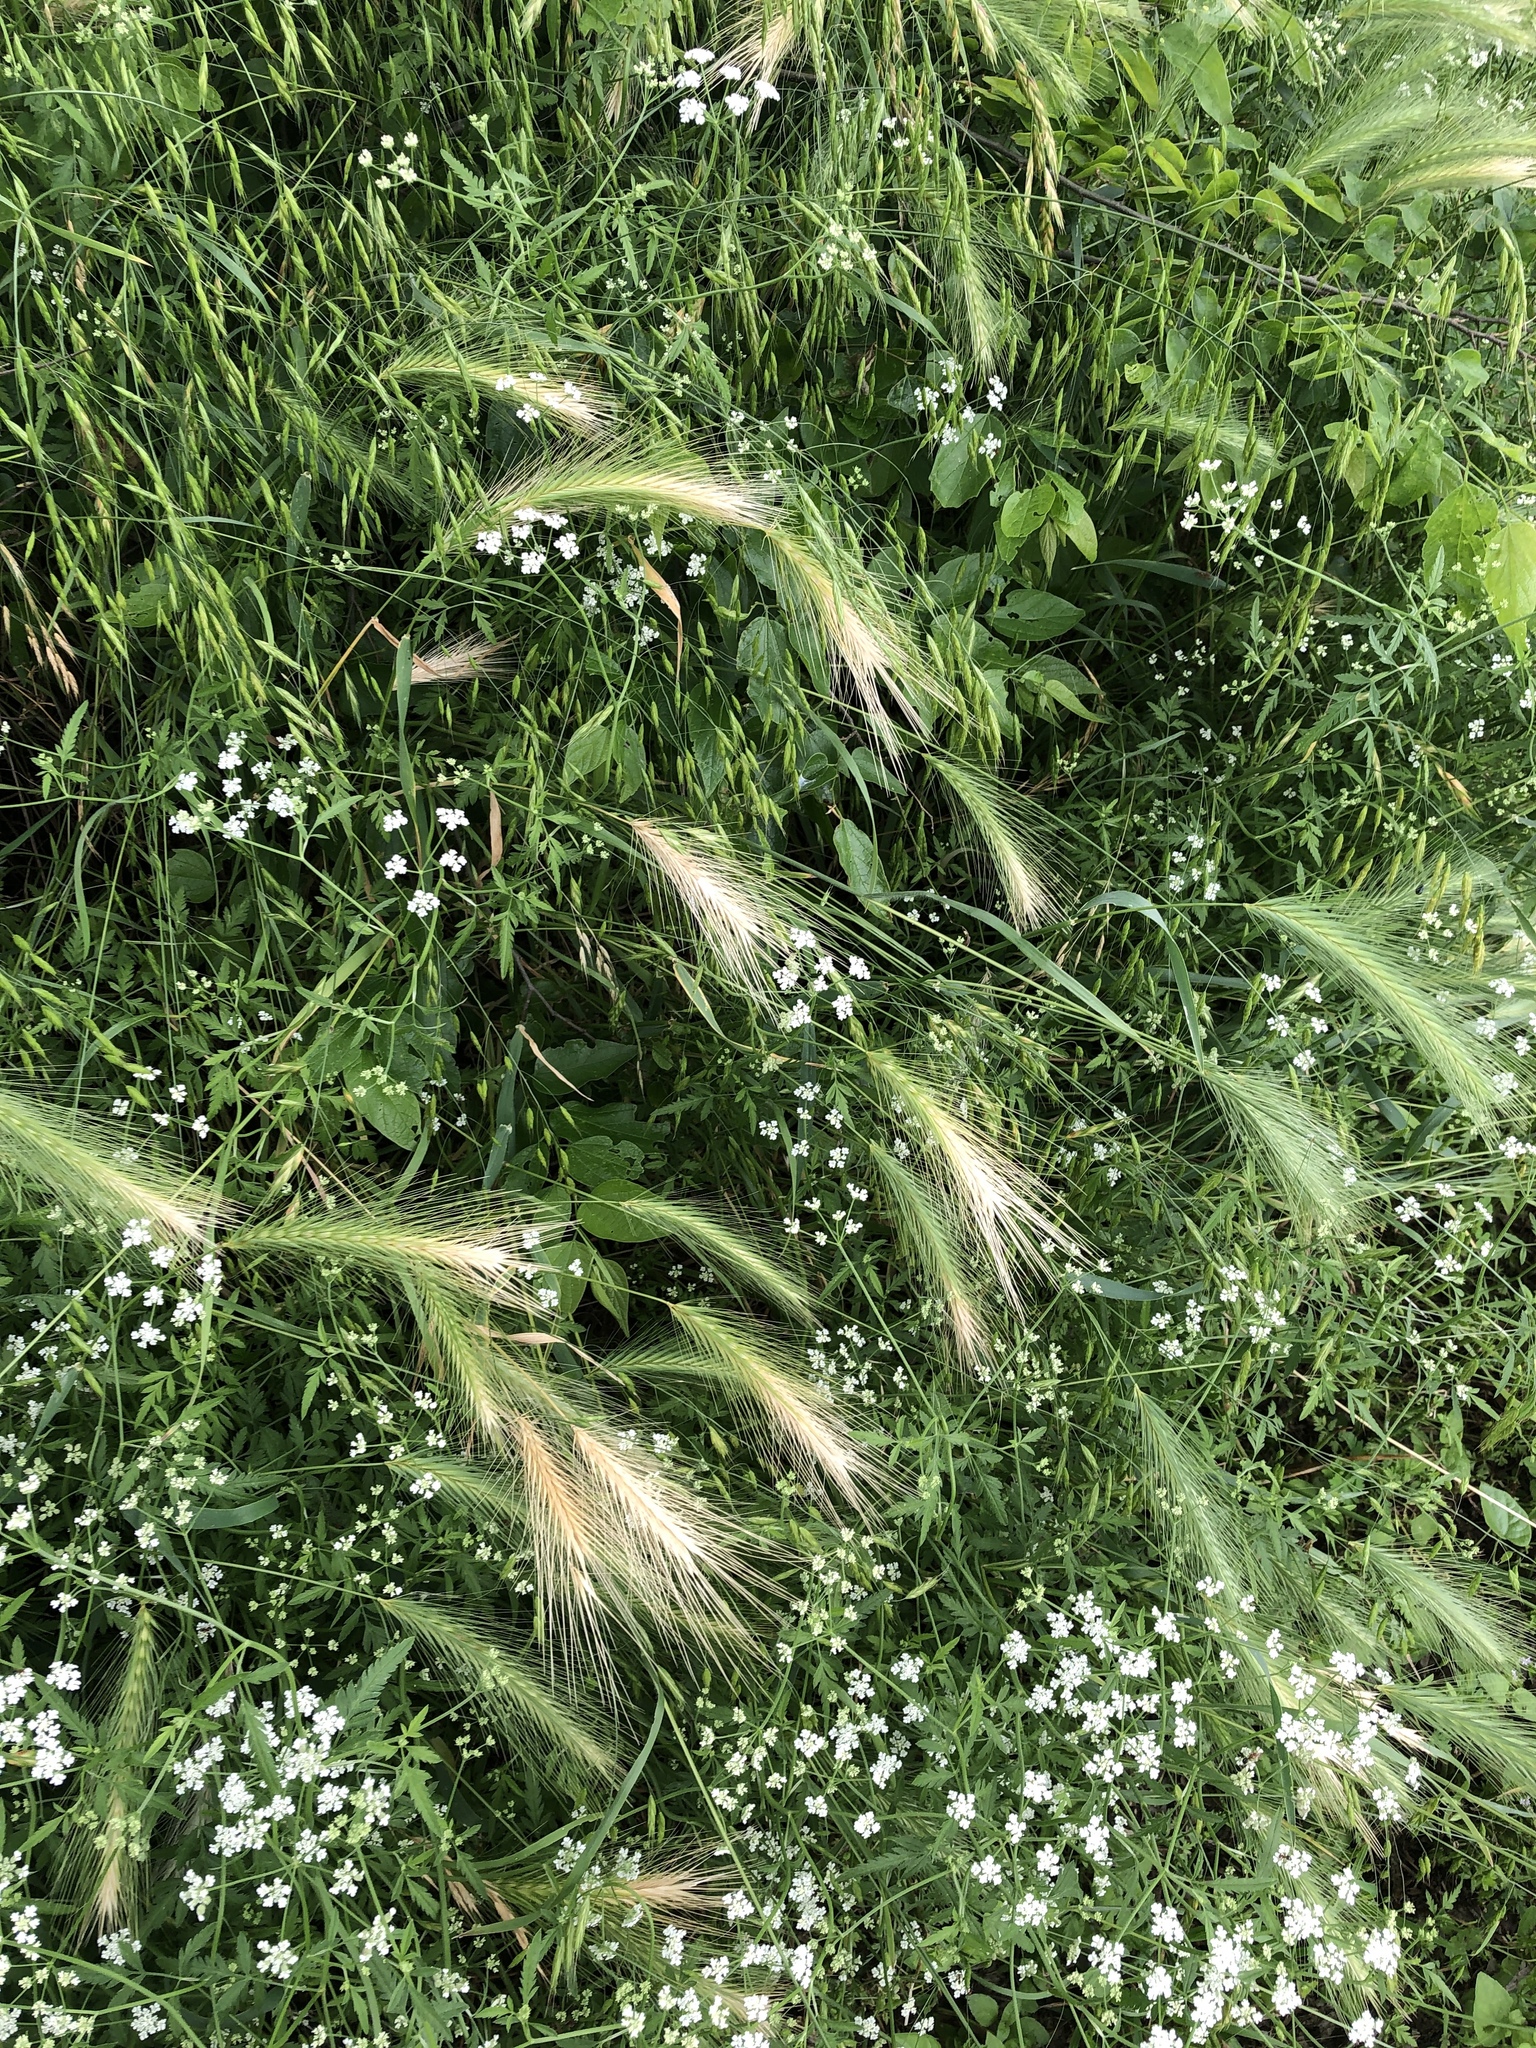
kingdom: Plantae
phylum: Tracheophyta
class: Liliopsida
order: Poales
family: Poaceae
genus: Hordeum
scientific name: Hordeum murinum
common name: Wall barley
